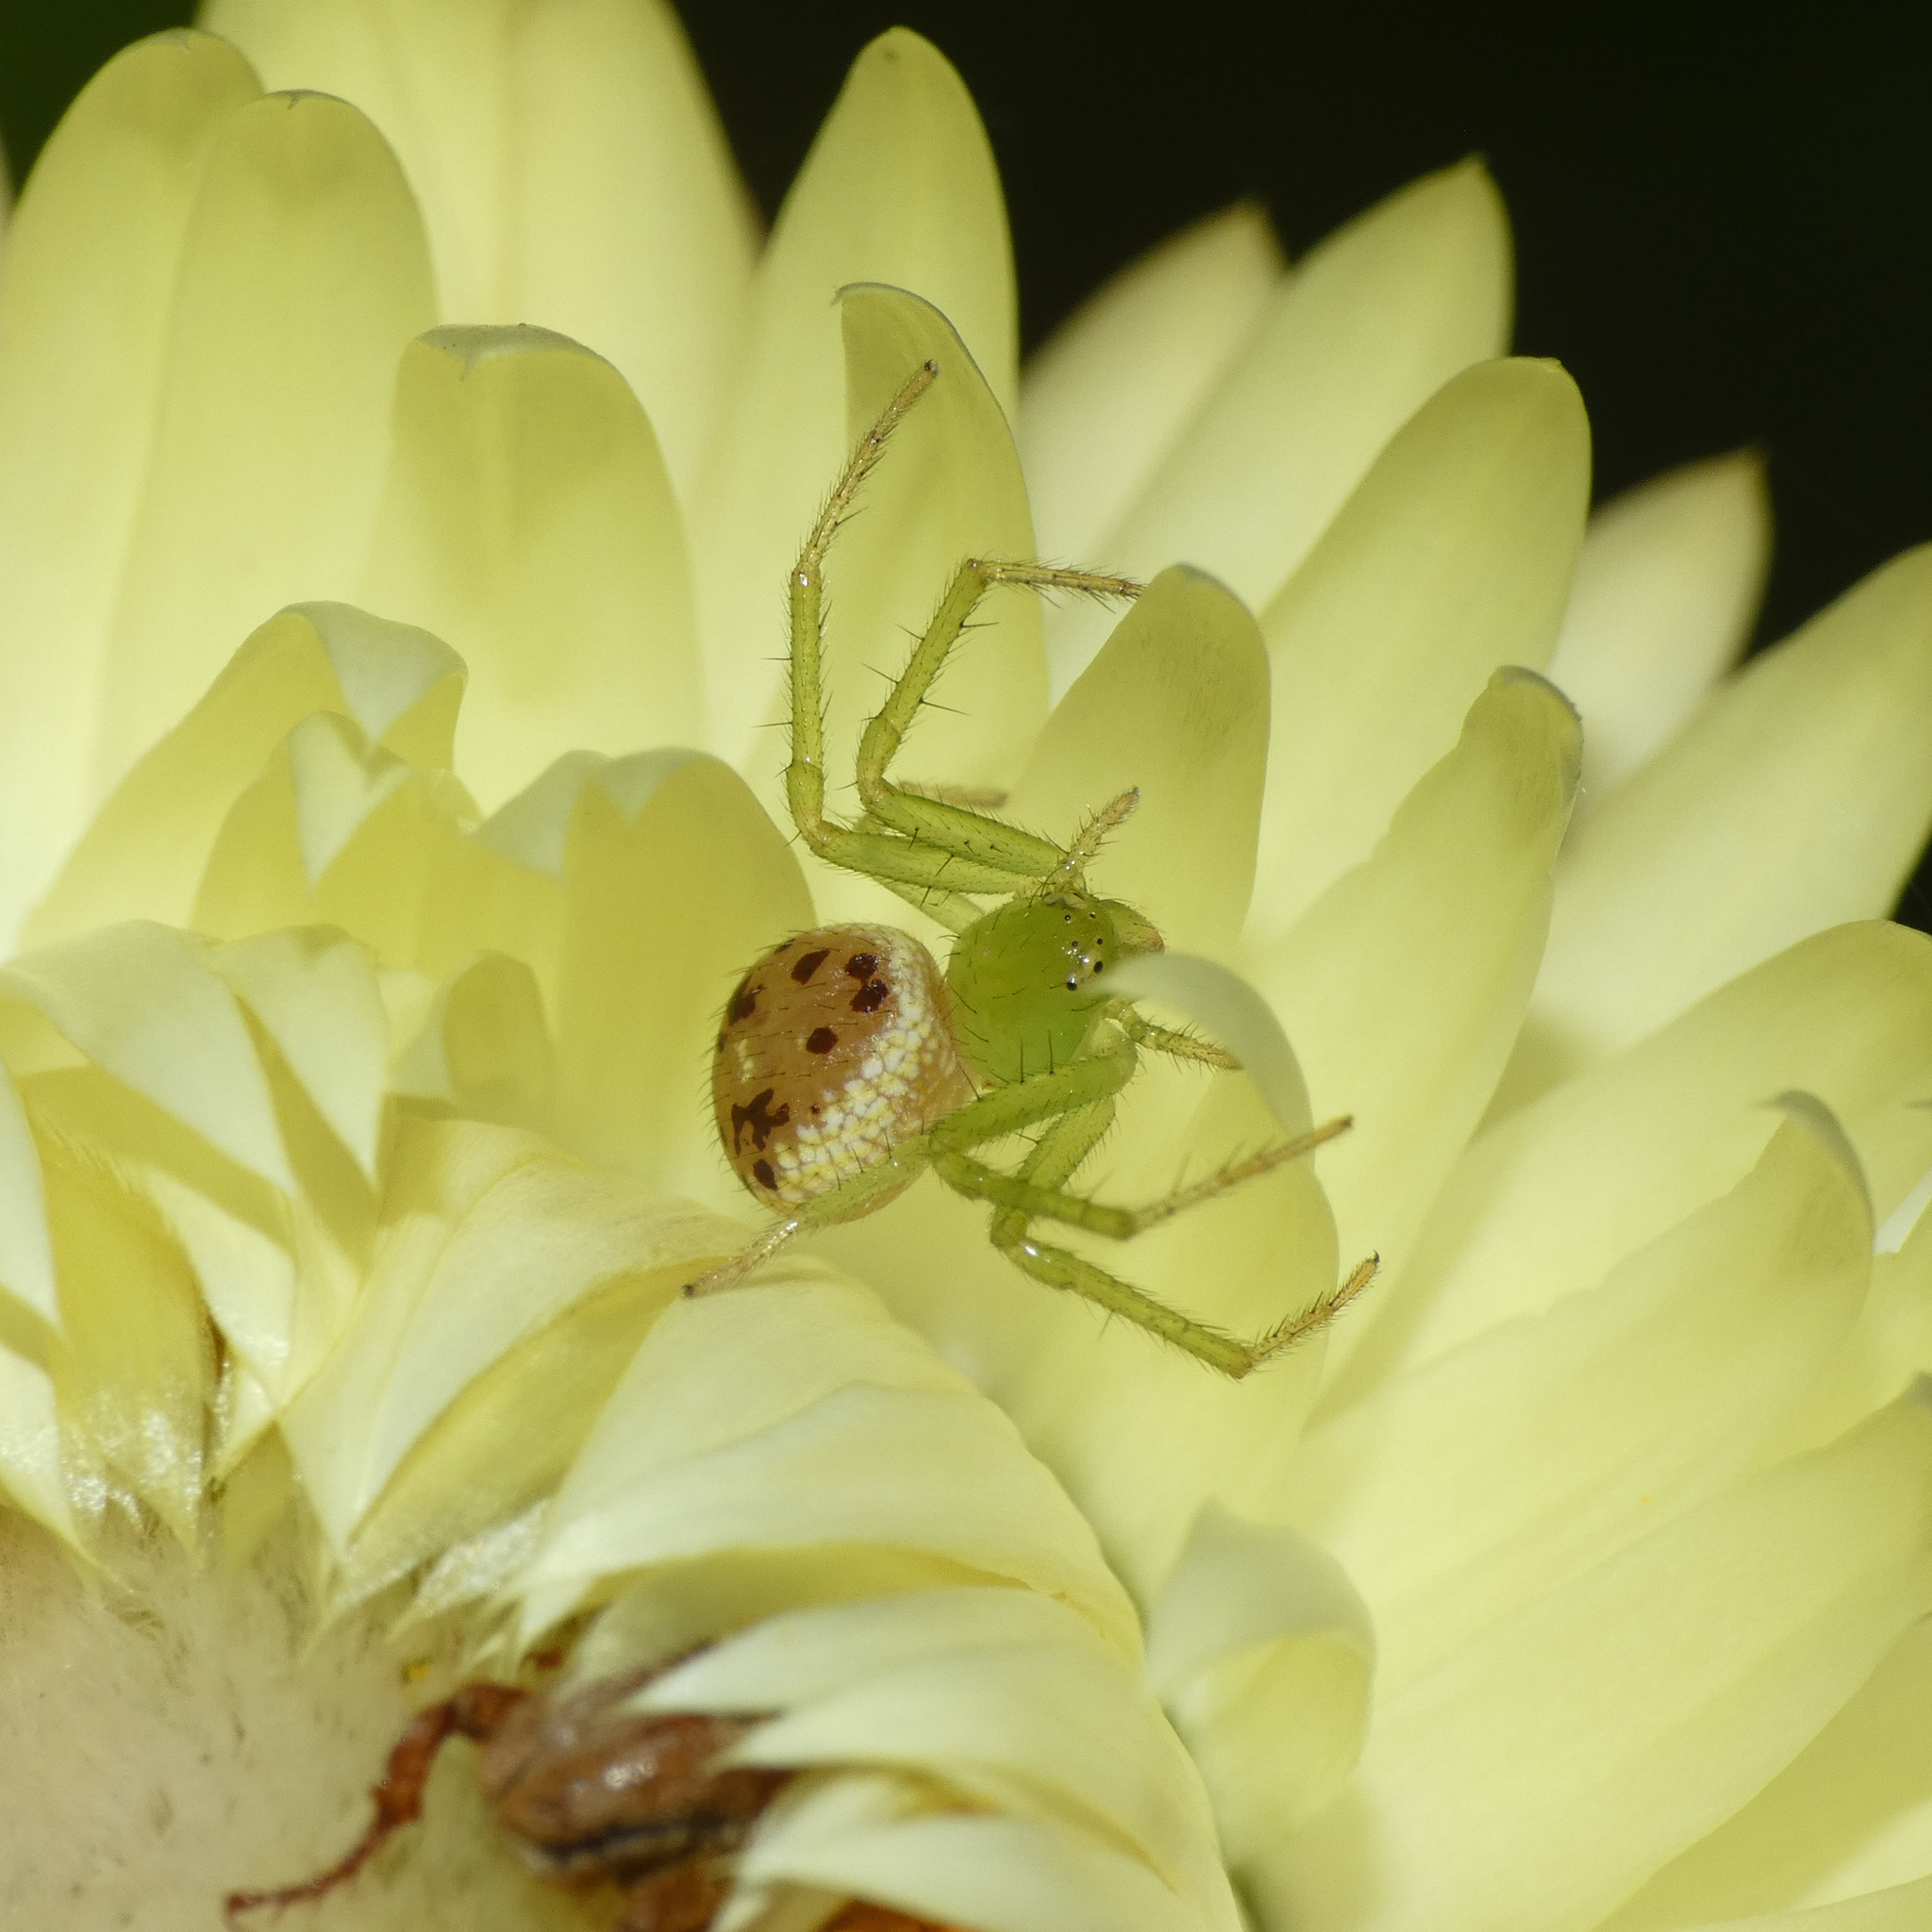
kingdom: Animalia
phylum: Arthropoda
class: Arachnida
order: Araneae
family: Thomisidae
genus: Diaea
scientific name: Diaea puncta
